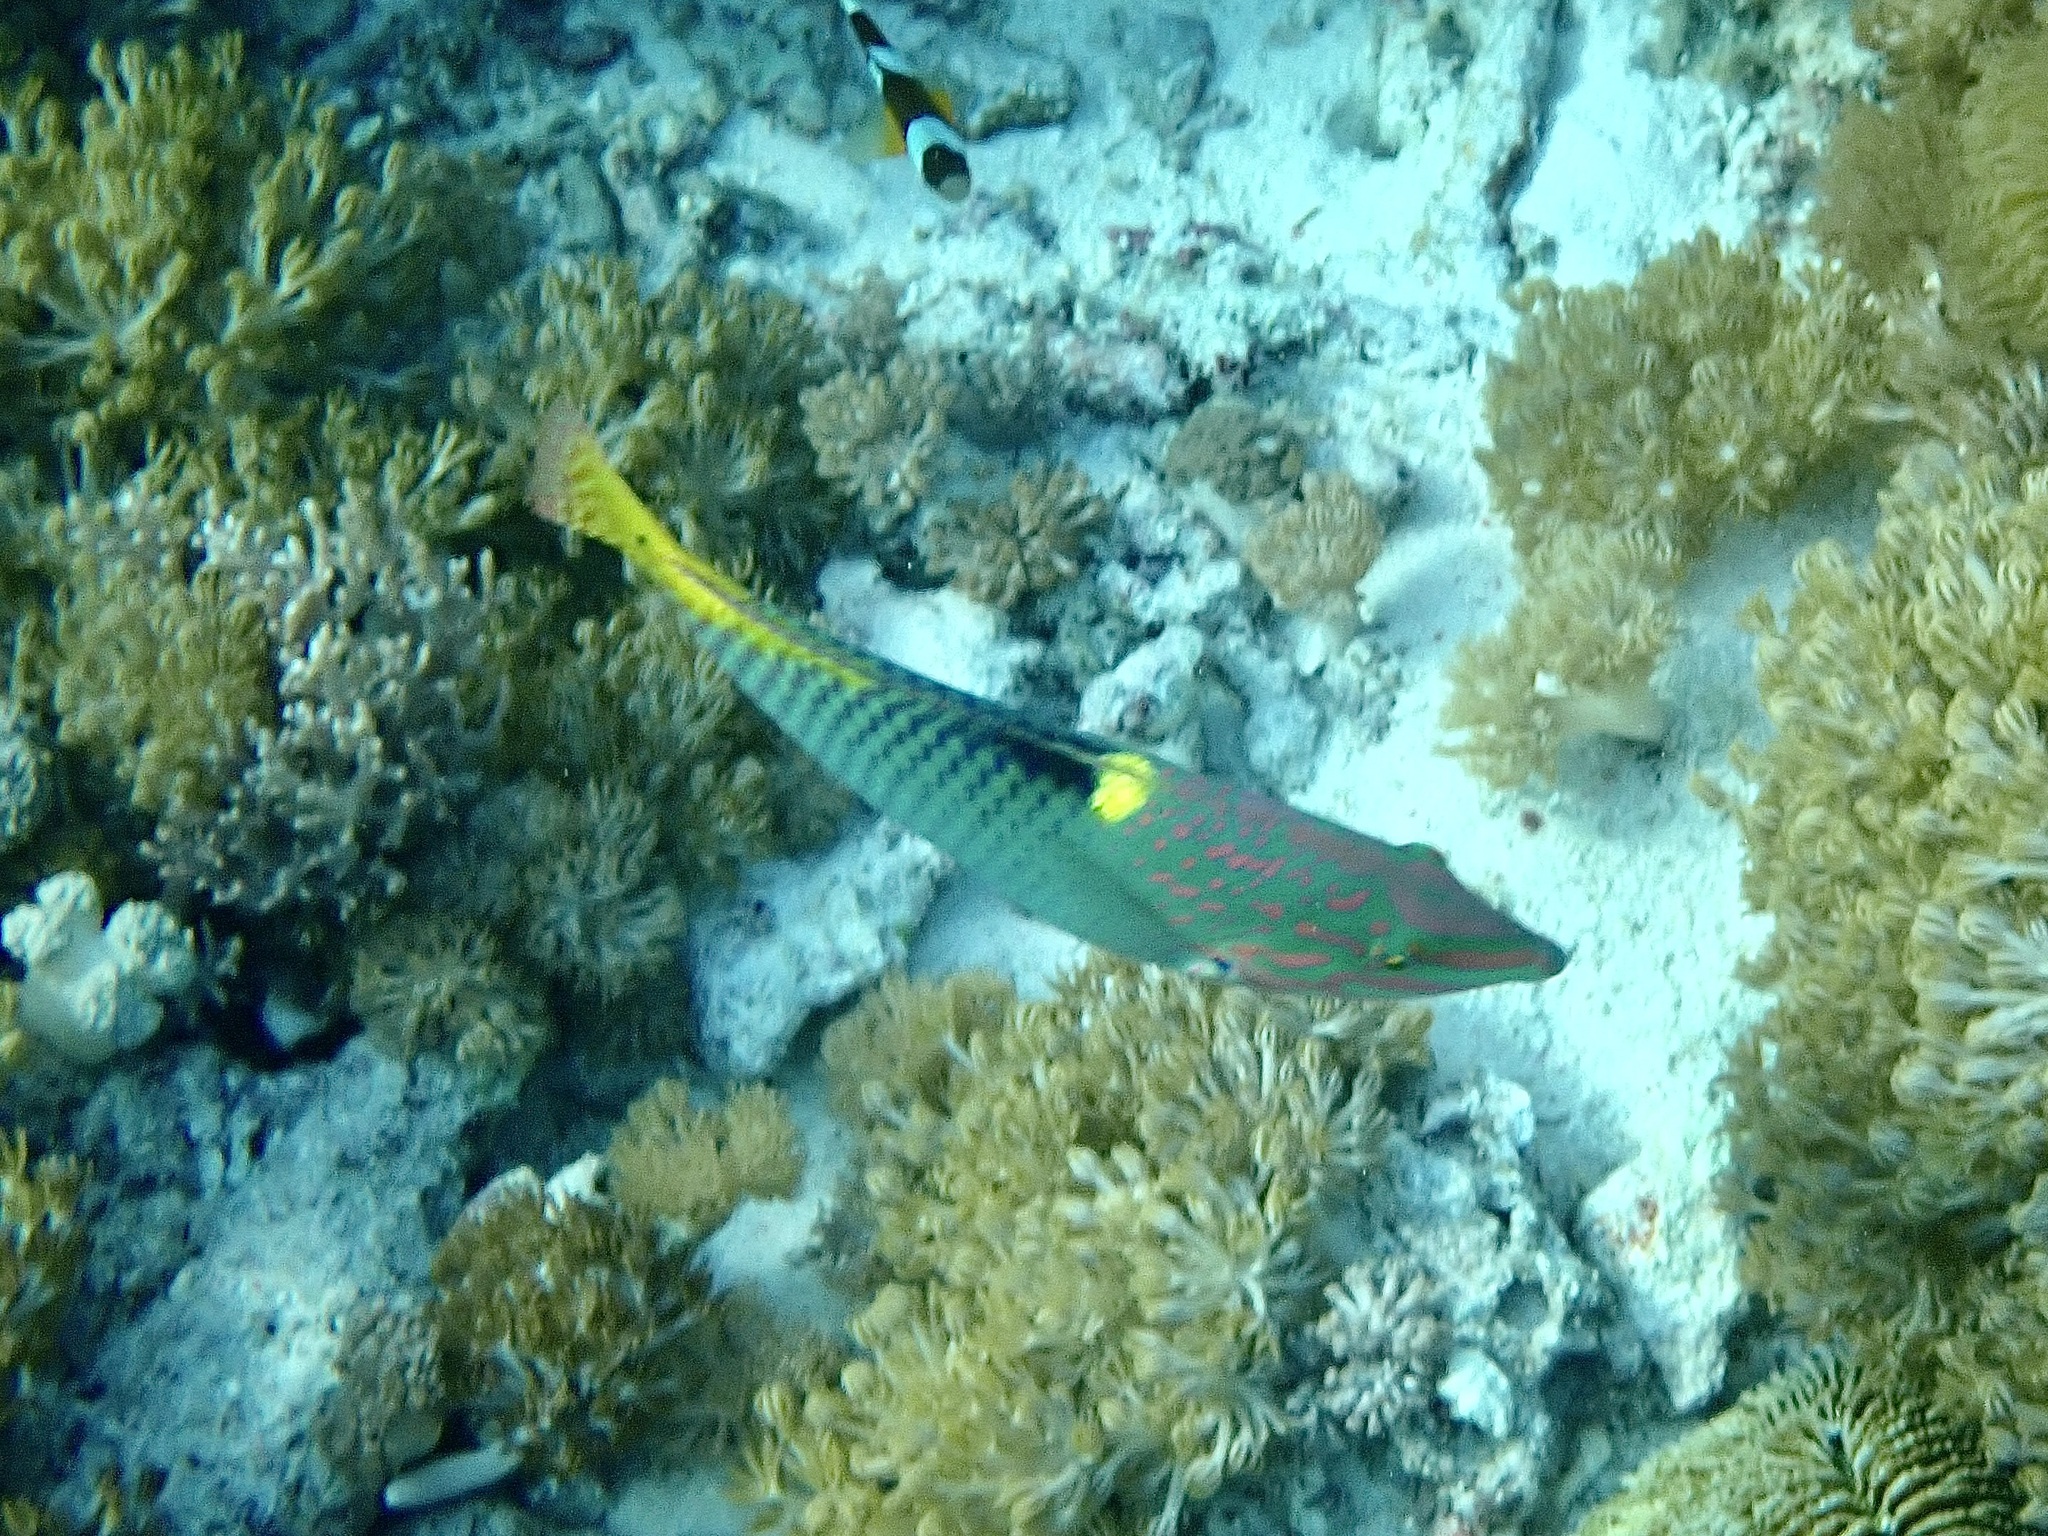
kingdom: Animalia
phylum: Chordata
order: Perciformes
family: Labridae
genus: Halichoeres
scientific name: Halichoeres hortulanus
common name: Checkerboard wrasse
